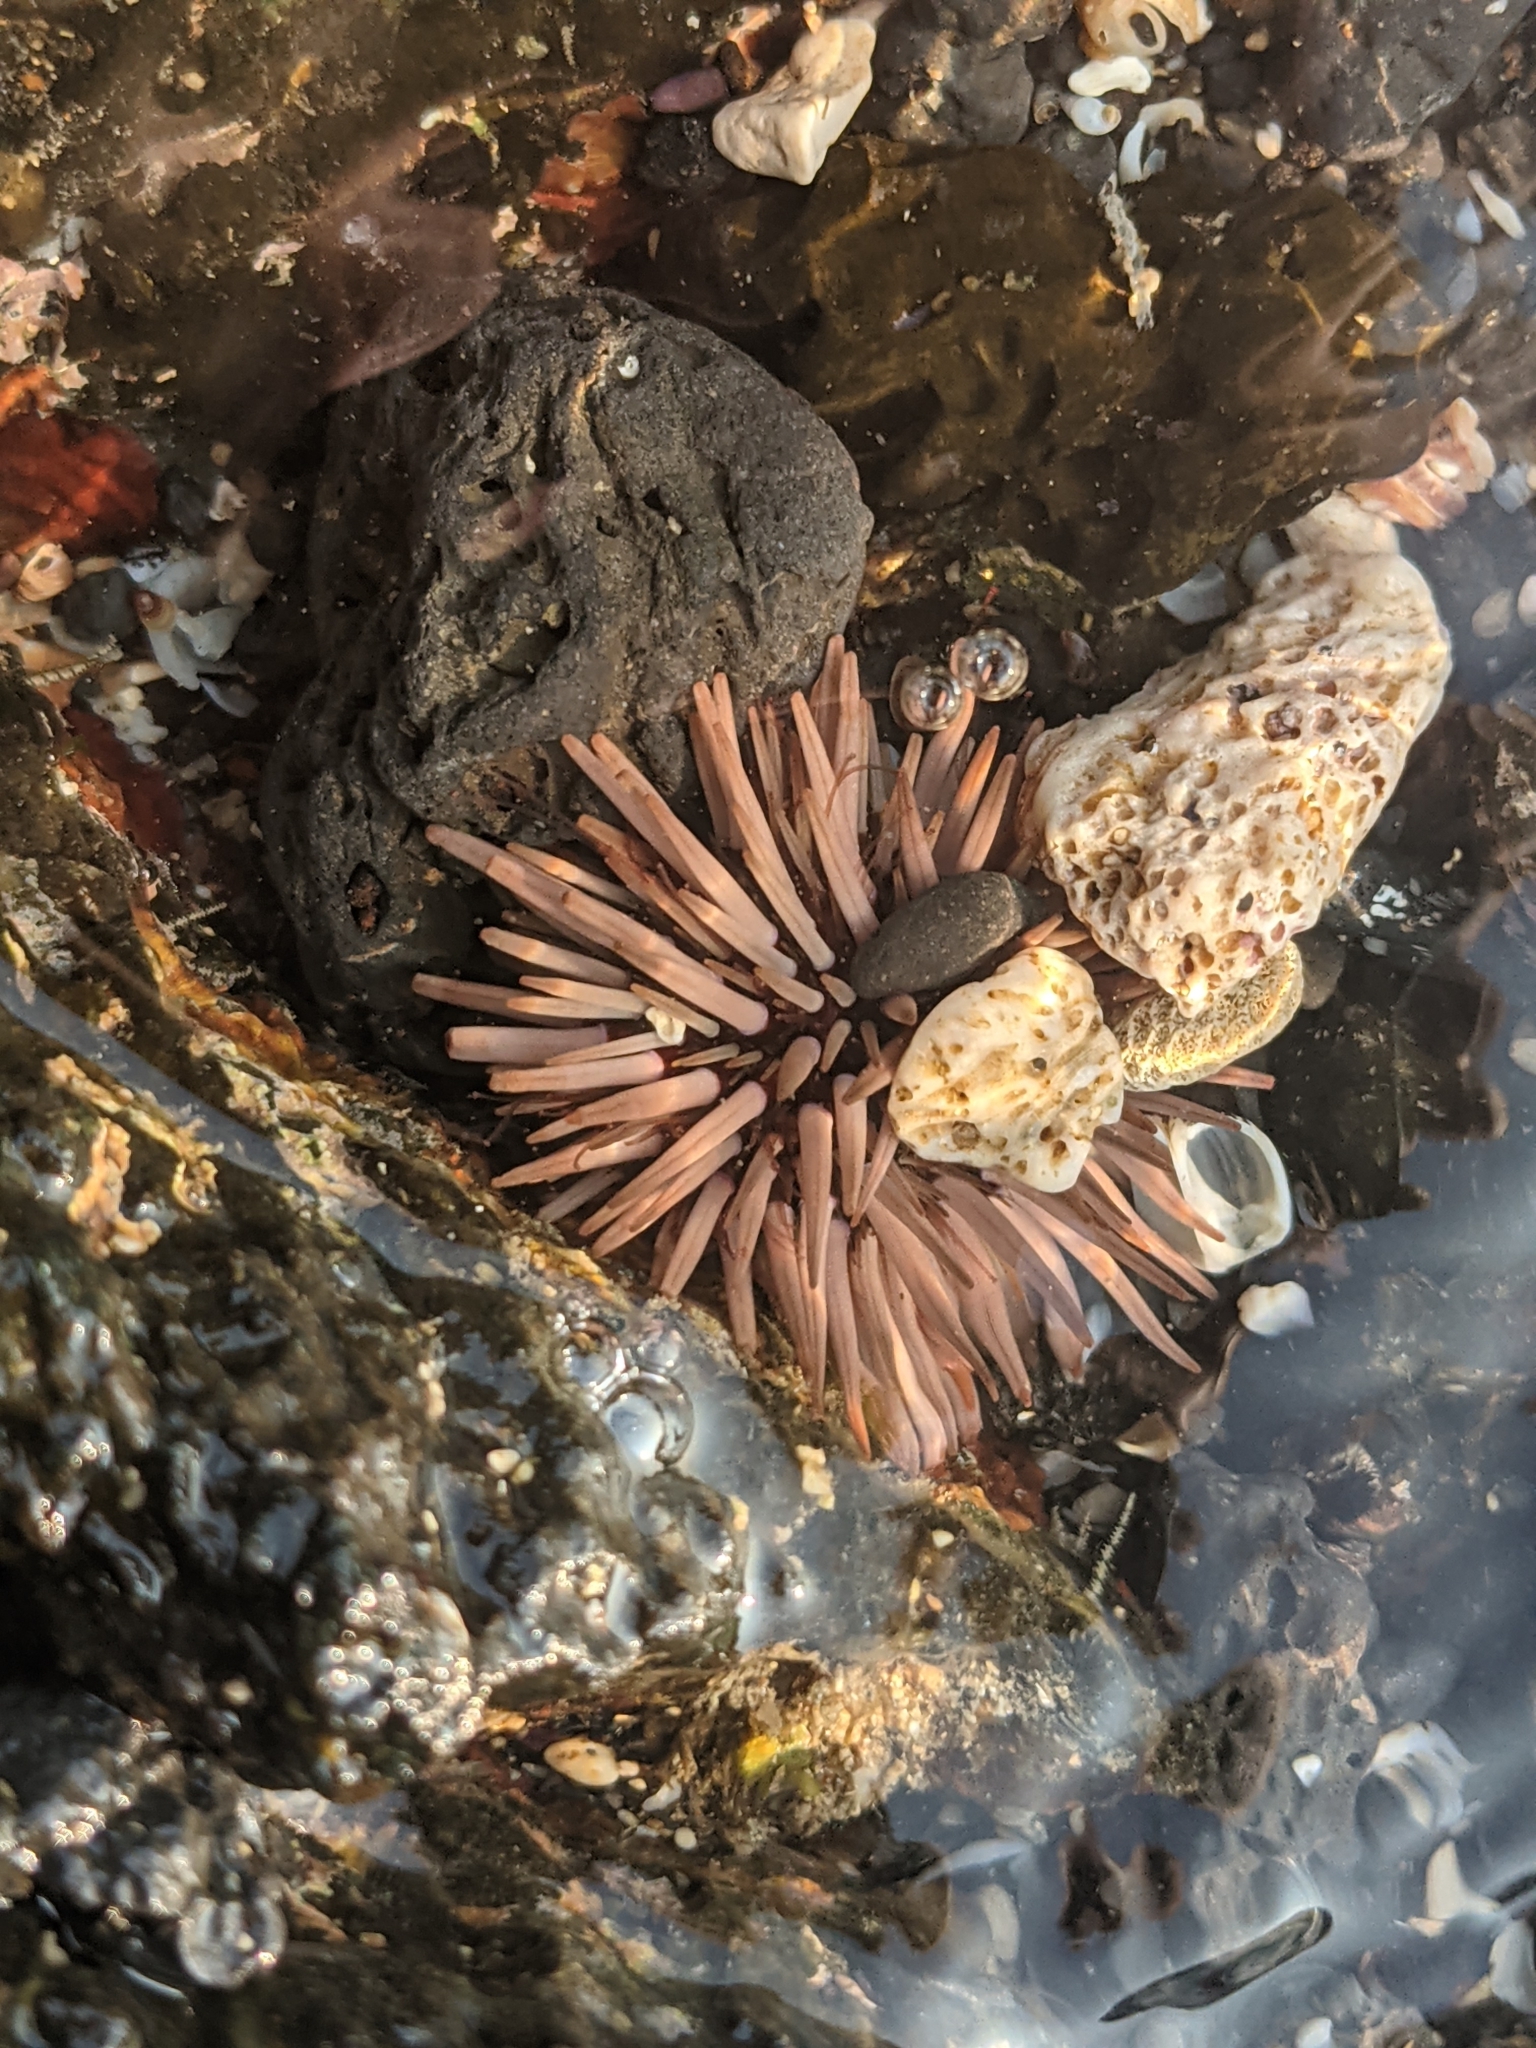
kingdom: Animalia
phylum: Echinodermata
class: Echinoidea
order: Camarodonta
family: Echinometridae
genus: Echinometra
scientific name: Echinometra mathaei
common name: Rock-boring urchin
